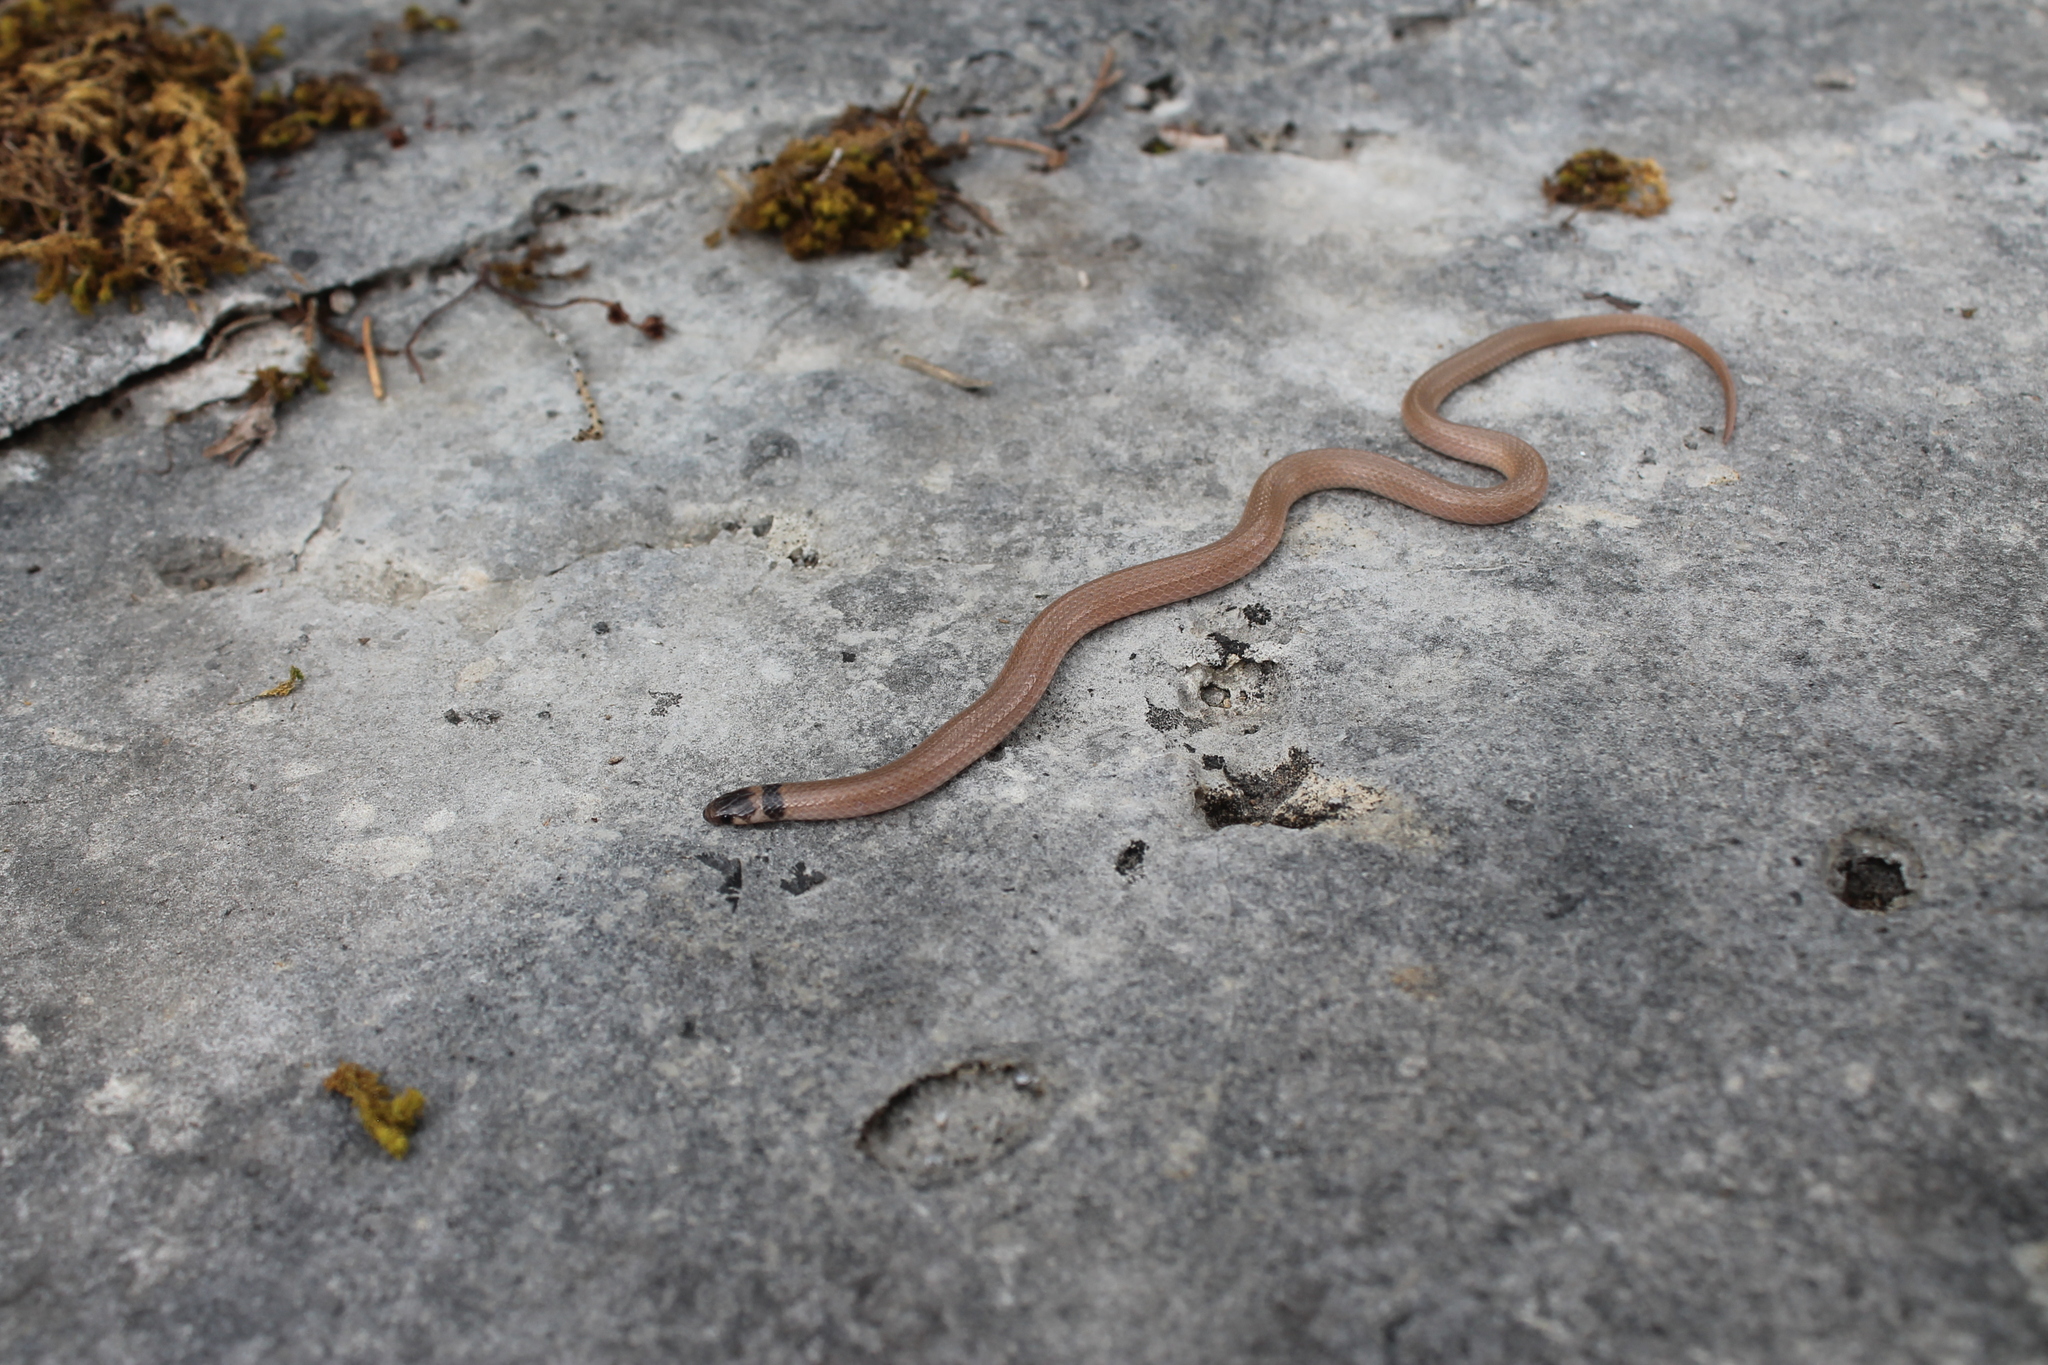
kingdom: Animalia
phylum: Chordata
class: Squamata
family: Colubridae
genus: Tantilla
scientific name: Tantilla coronata
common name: Southeastern crowned snake
